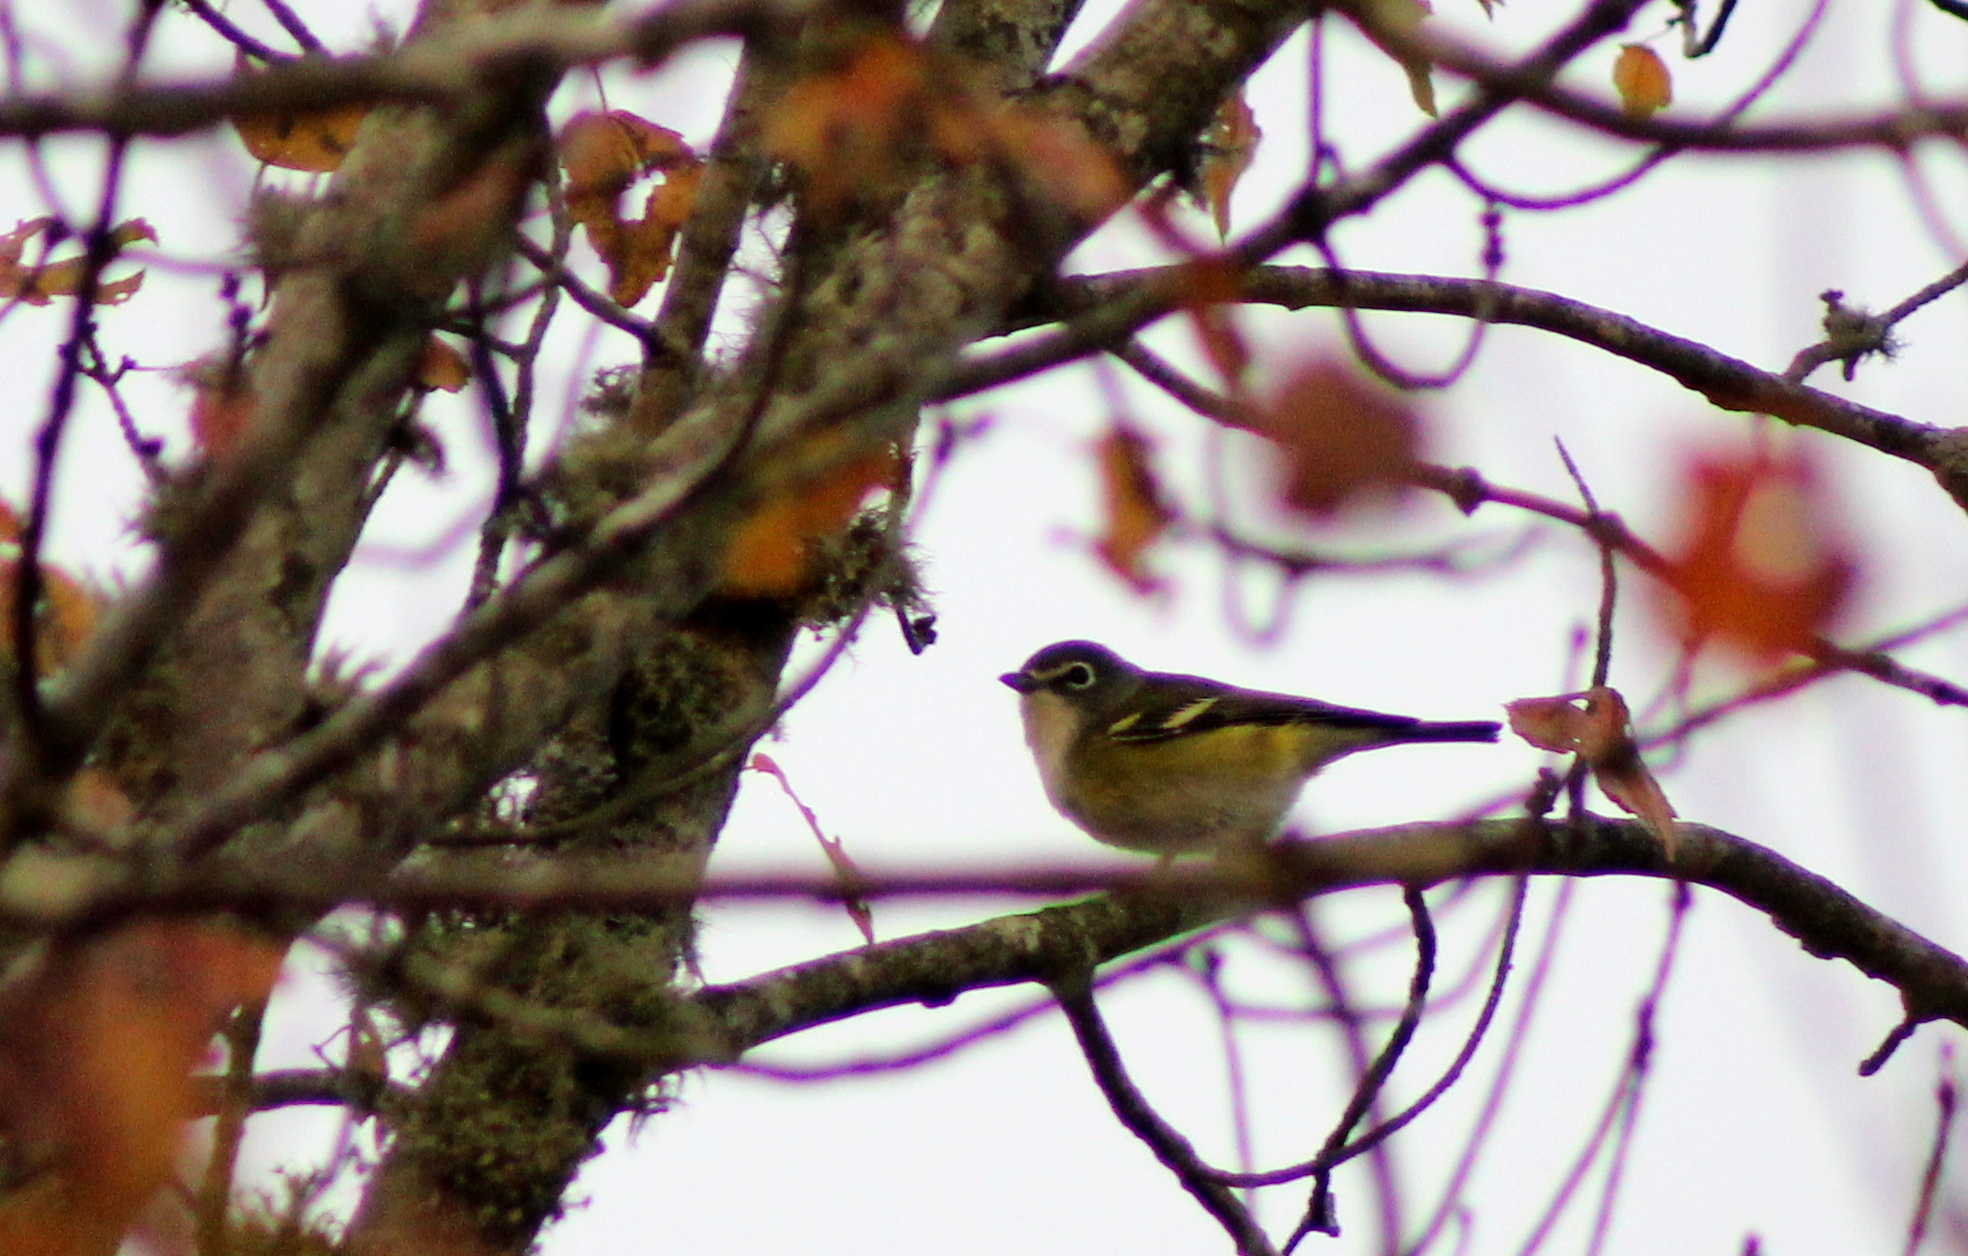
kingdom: Animalia
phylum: Chordata
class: Aves
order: Passeriformes
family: Vireonidae
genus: Vireo
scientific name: Vireo solitarius
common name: Blue-headed vireo
